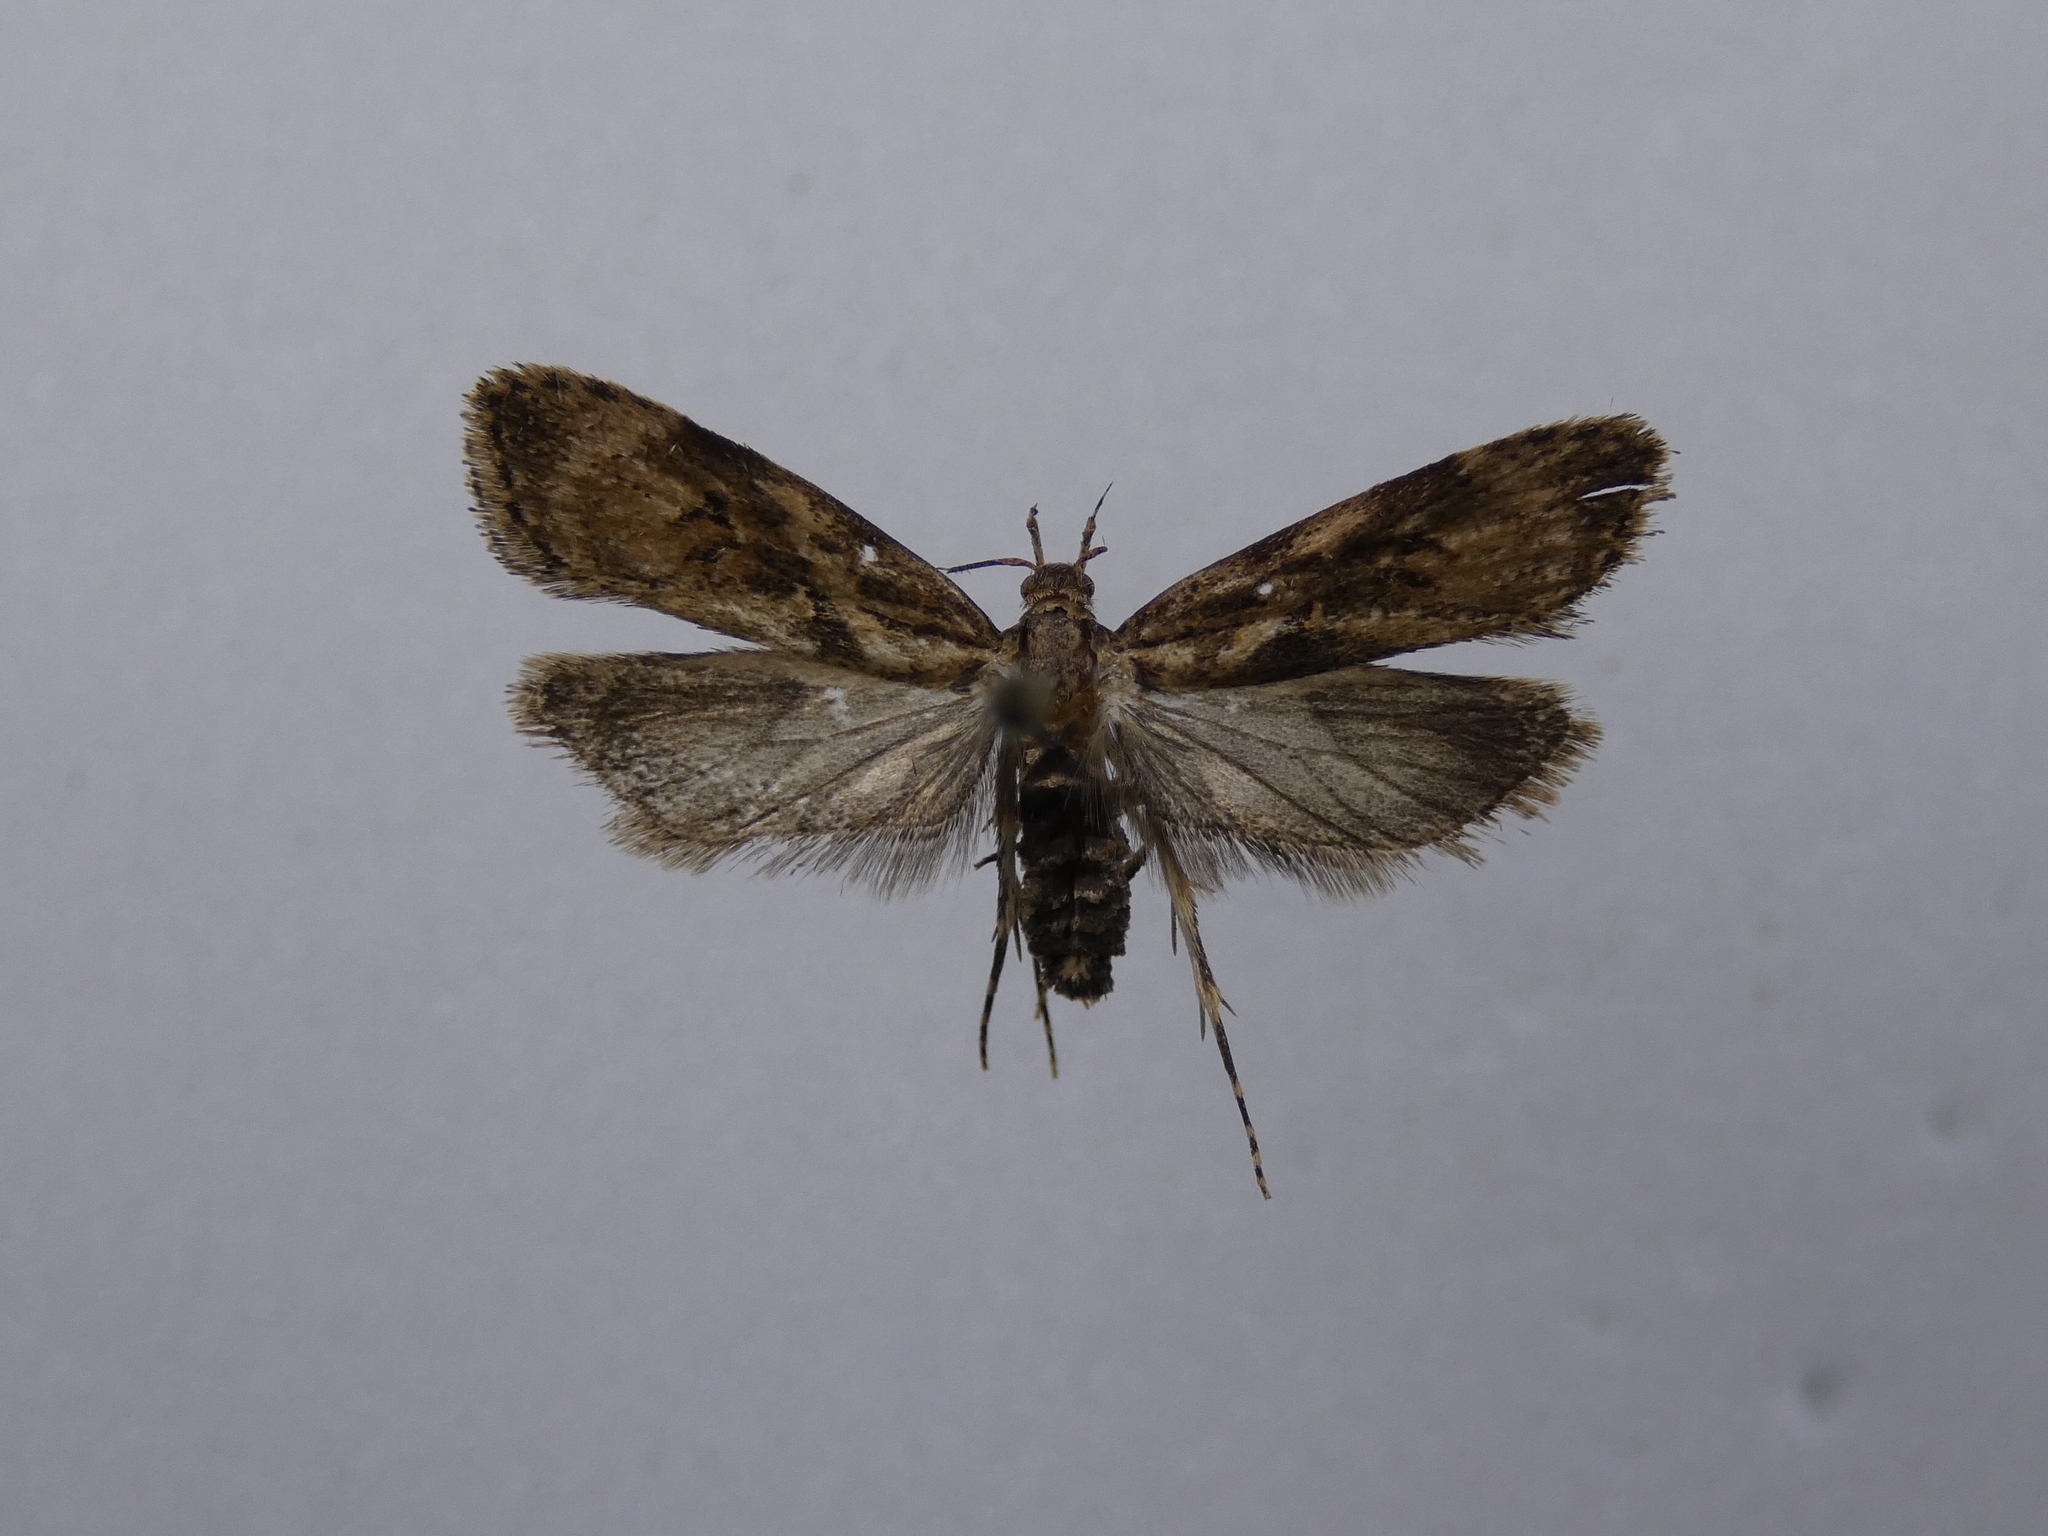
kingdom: Animalia
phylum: Arthropoda
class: Insecta
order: Lepidoptera
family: Oecophoridae
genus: Izatha
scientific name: Izatha austera
